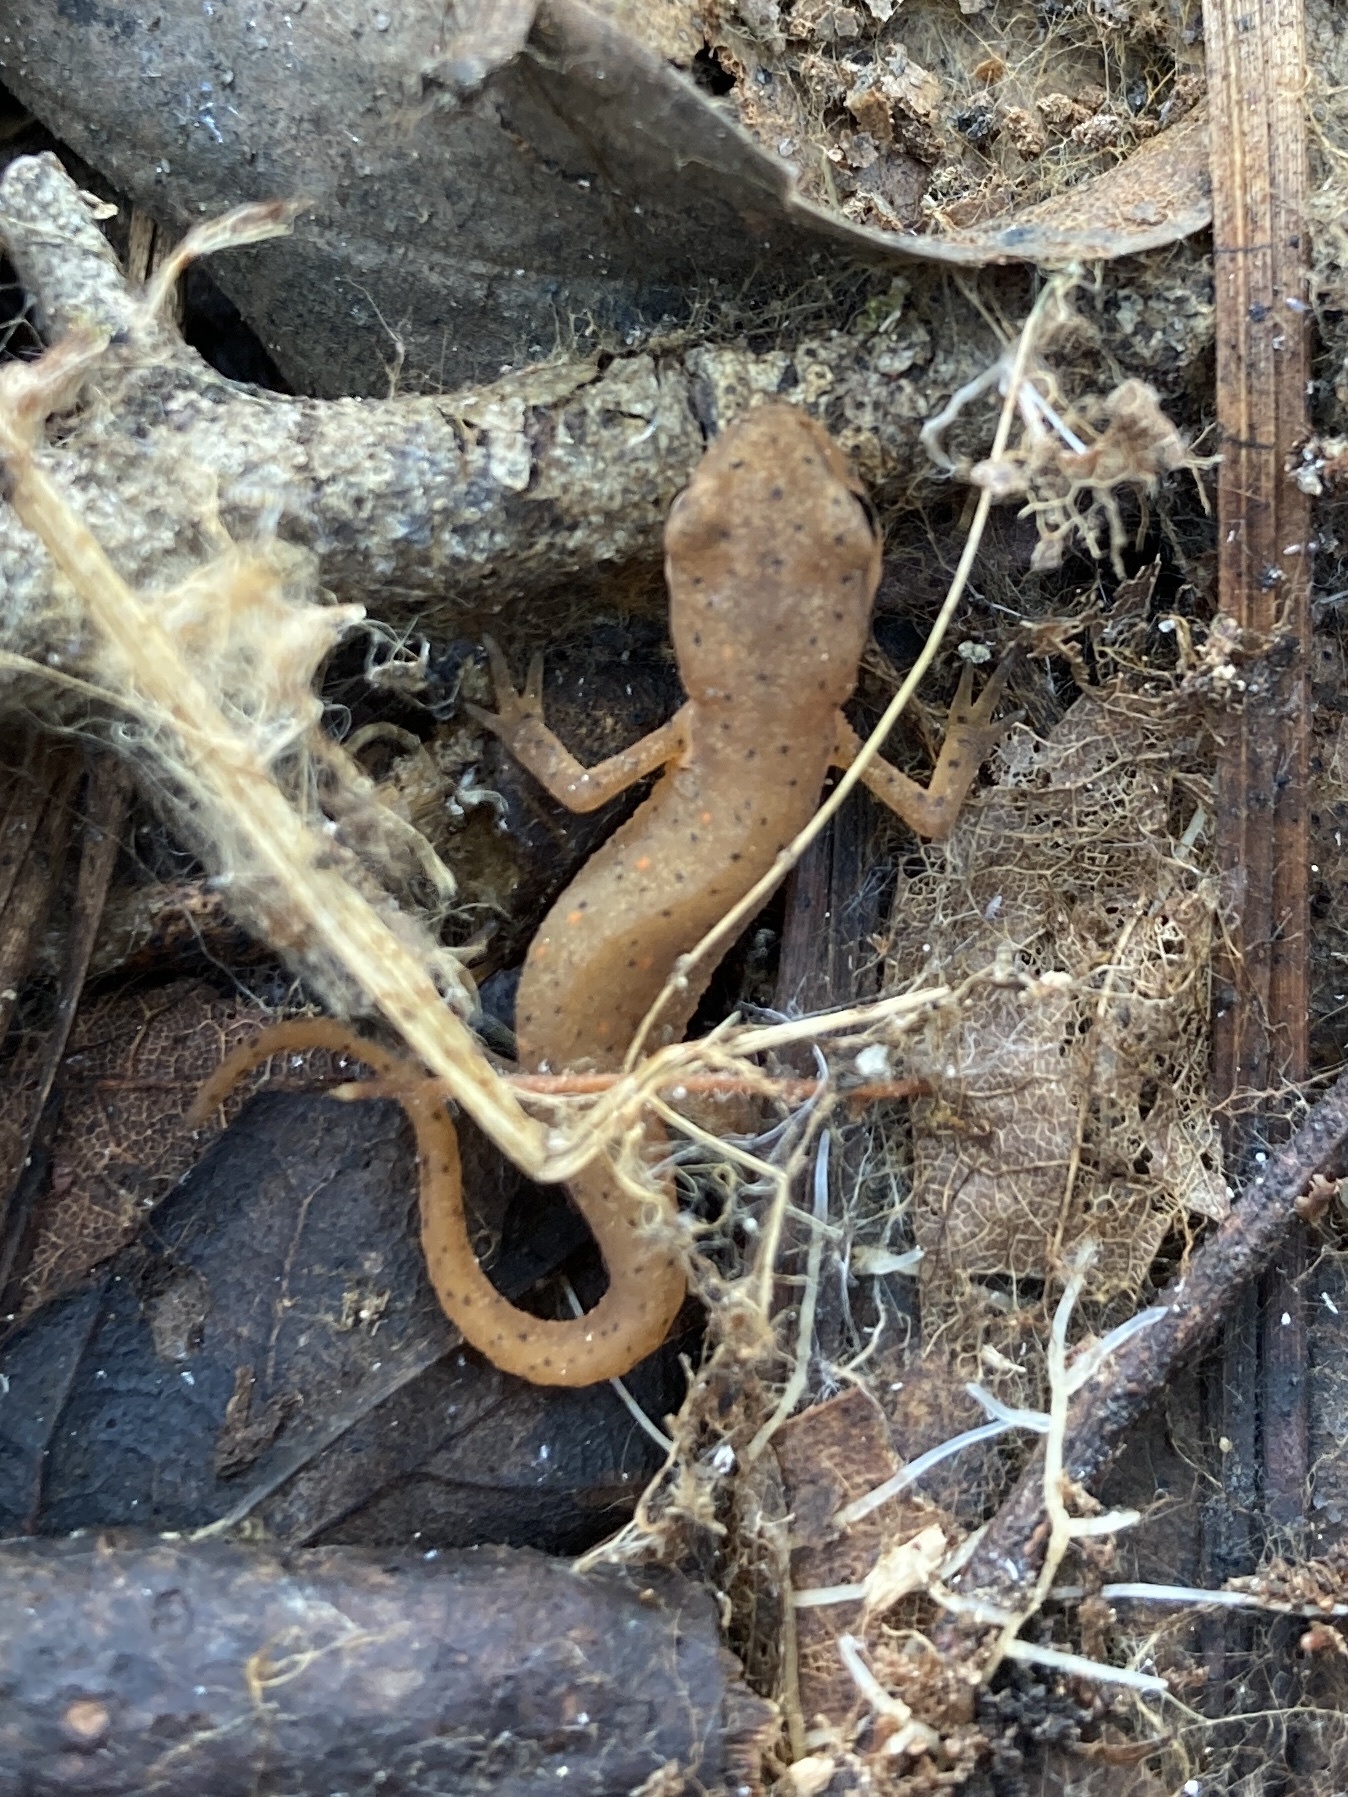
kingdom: Animalia
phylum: Chordata
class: Amphibia
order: Caudata
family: Salamandridae
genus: Notophthalmus
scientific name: Notophthalmus viridescens
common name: Eastern newt
